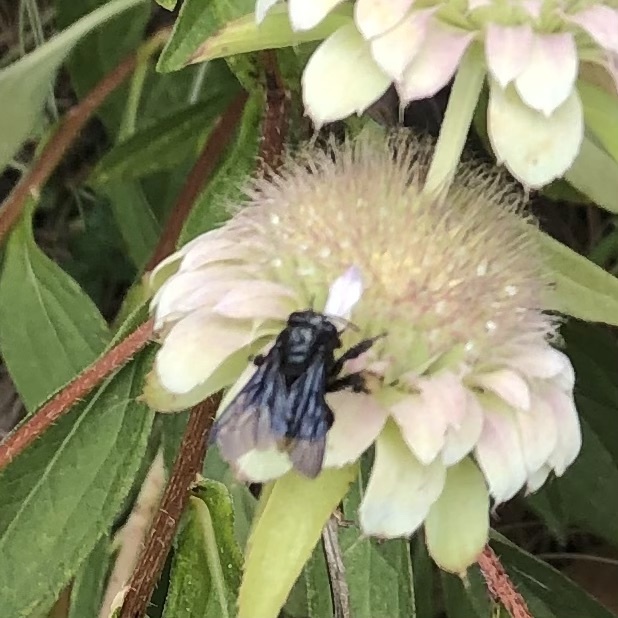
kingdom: Animalia
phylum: Arthropoda
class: Insecta
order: Hymenoptera
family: Apidae
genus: Melissodes
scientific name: Melissodes bimaculatus
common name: Two-spotted long-horned bee
